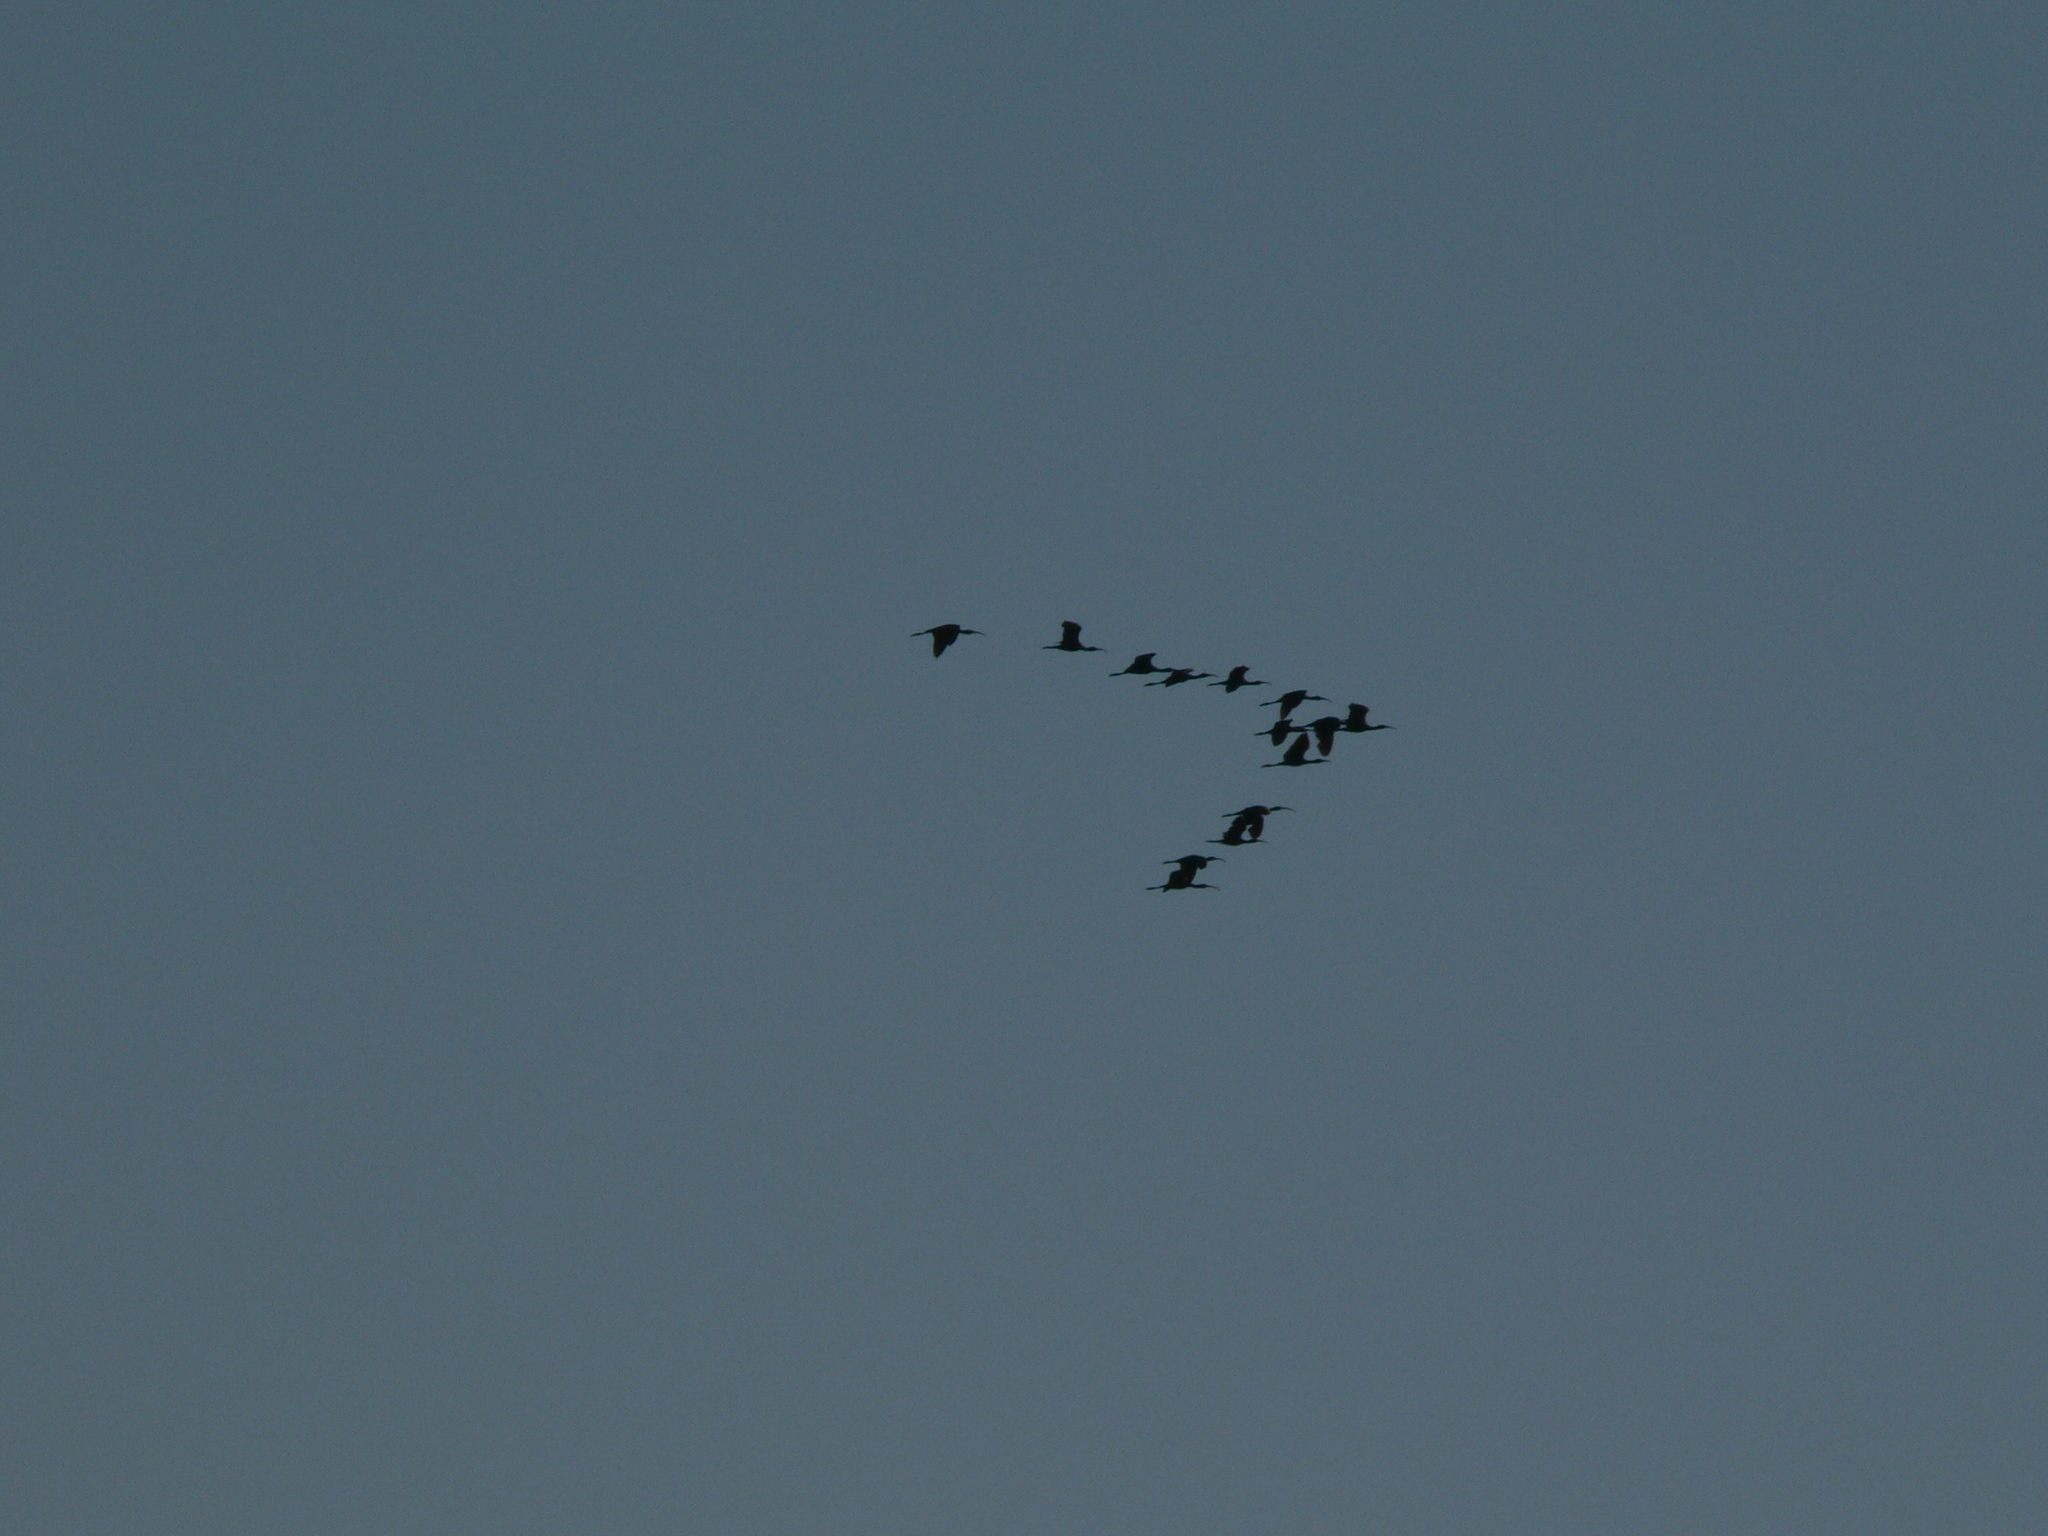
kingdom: Animalia
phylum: Chordata
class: Aves
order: Pelecaniformes
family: Threskiornithidae
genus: Plegadis
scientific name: Plegadis chihi
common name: White-faced ibis
